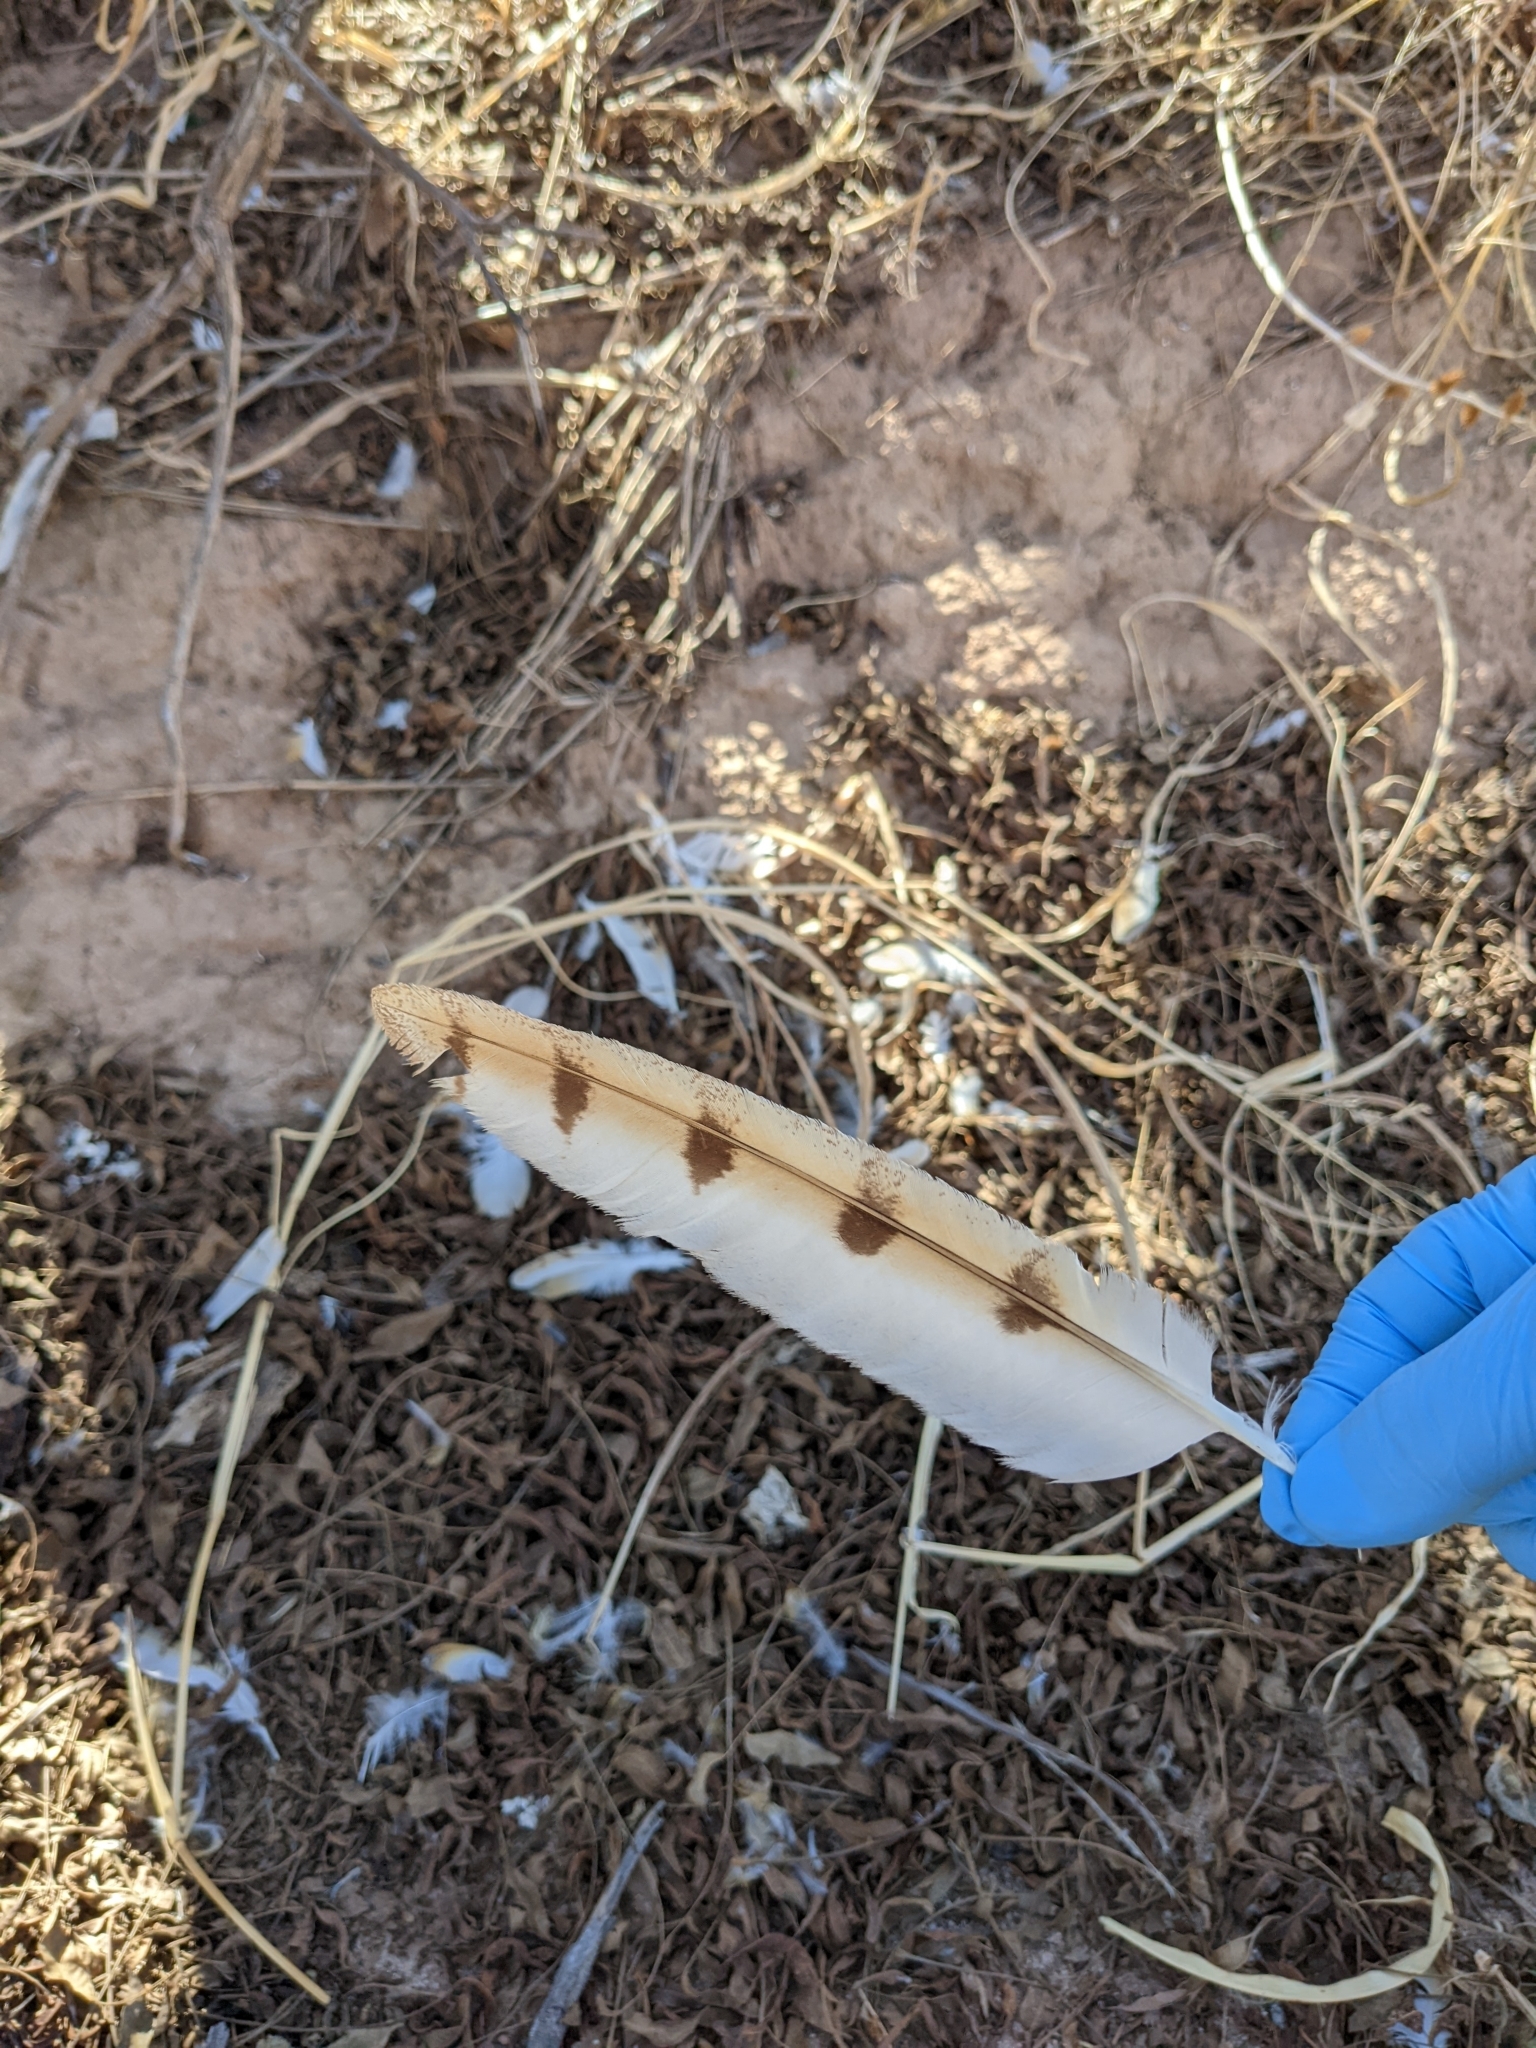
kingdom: Animalia
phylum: Chordata
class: Aves
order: Strigiformes
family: Tytonidae
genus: Tyto
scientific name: Tyto alba
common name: Barn owl
